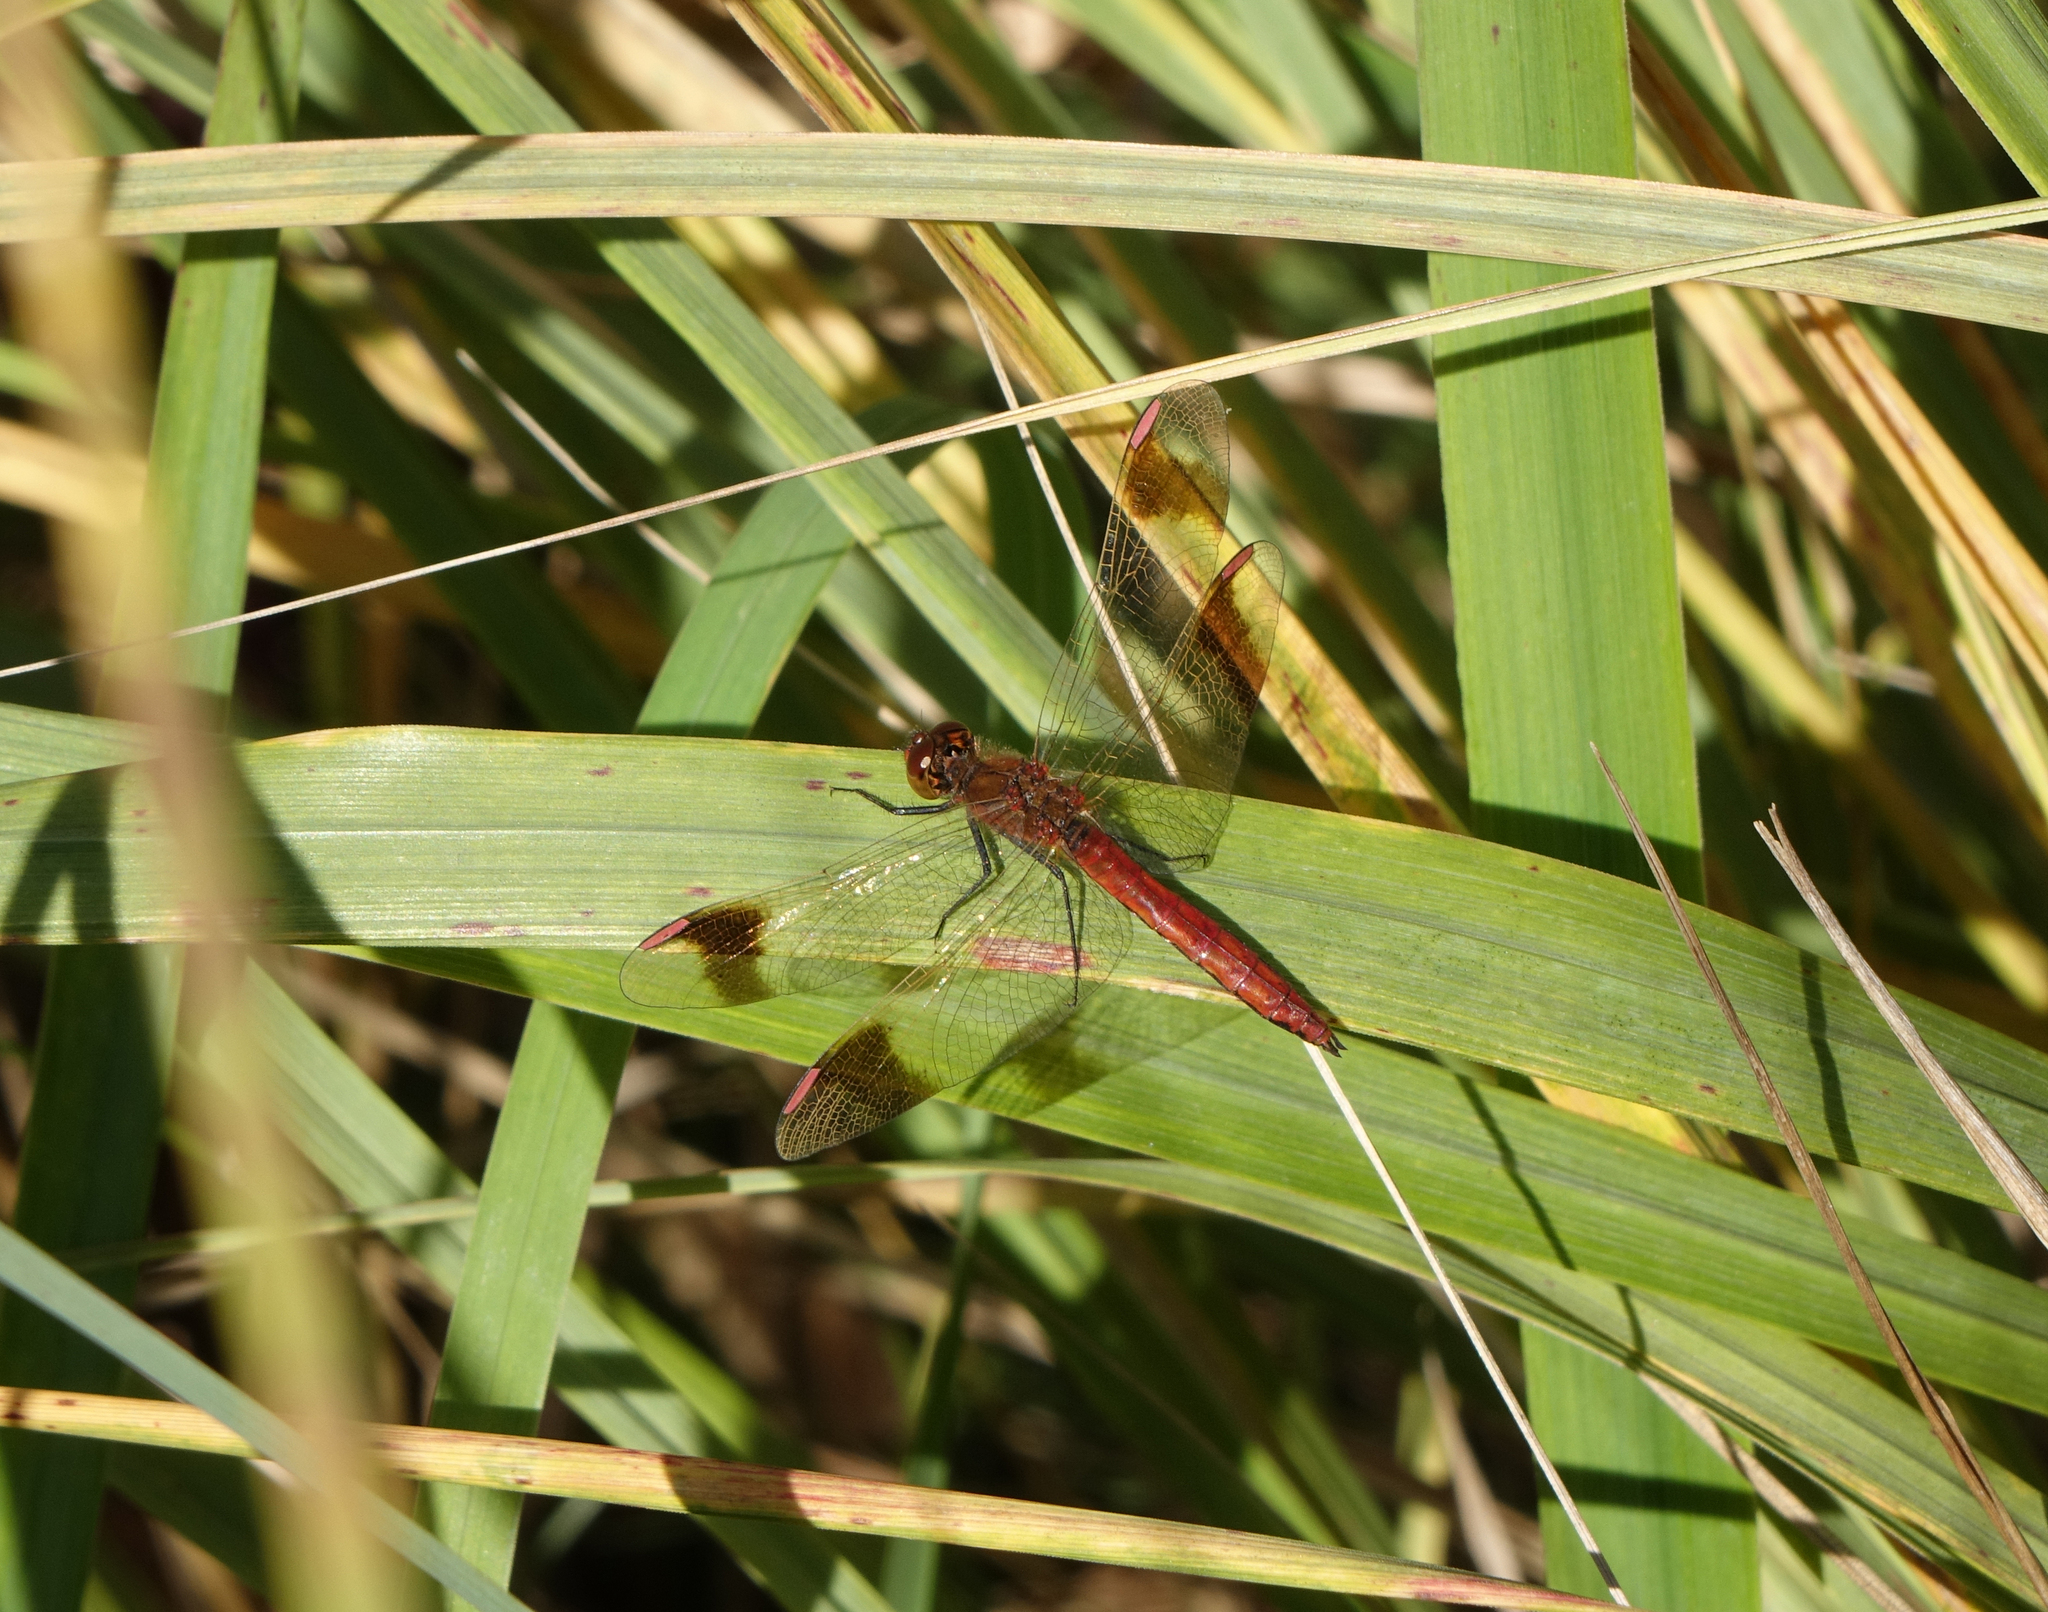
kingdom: Animalia
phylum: Arthropoda
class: Insecta
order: Odonata
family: Libellulidae
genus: Sympetrum
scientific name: Sympetrum pedemontanum
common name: Banded darter
